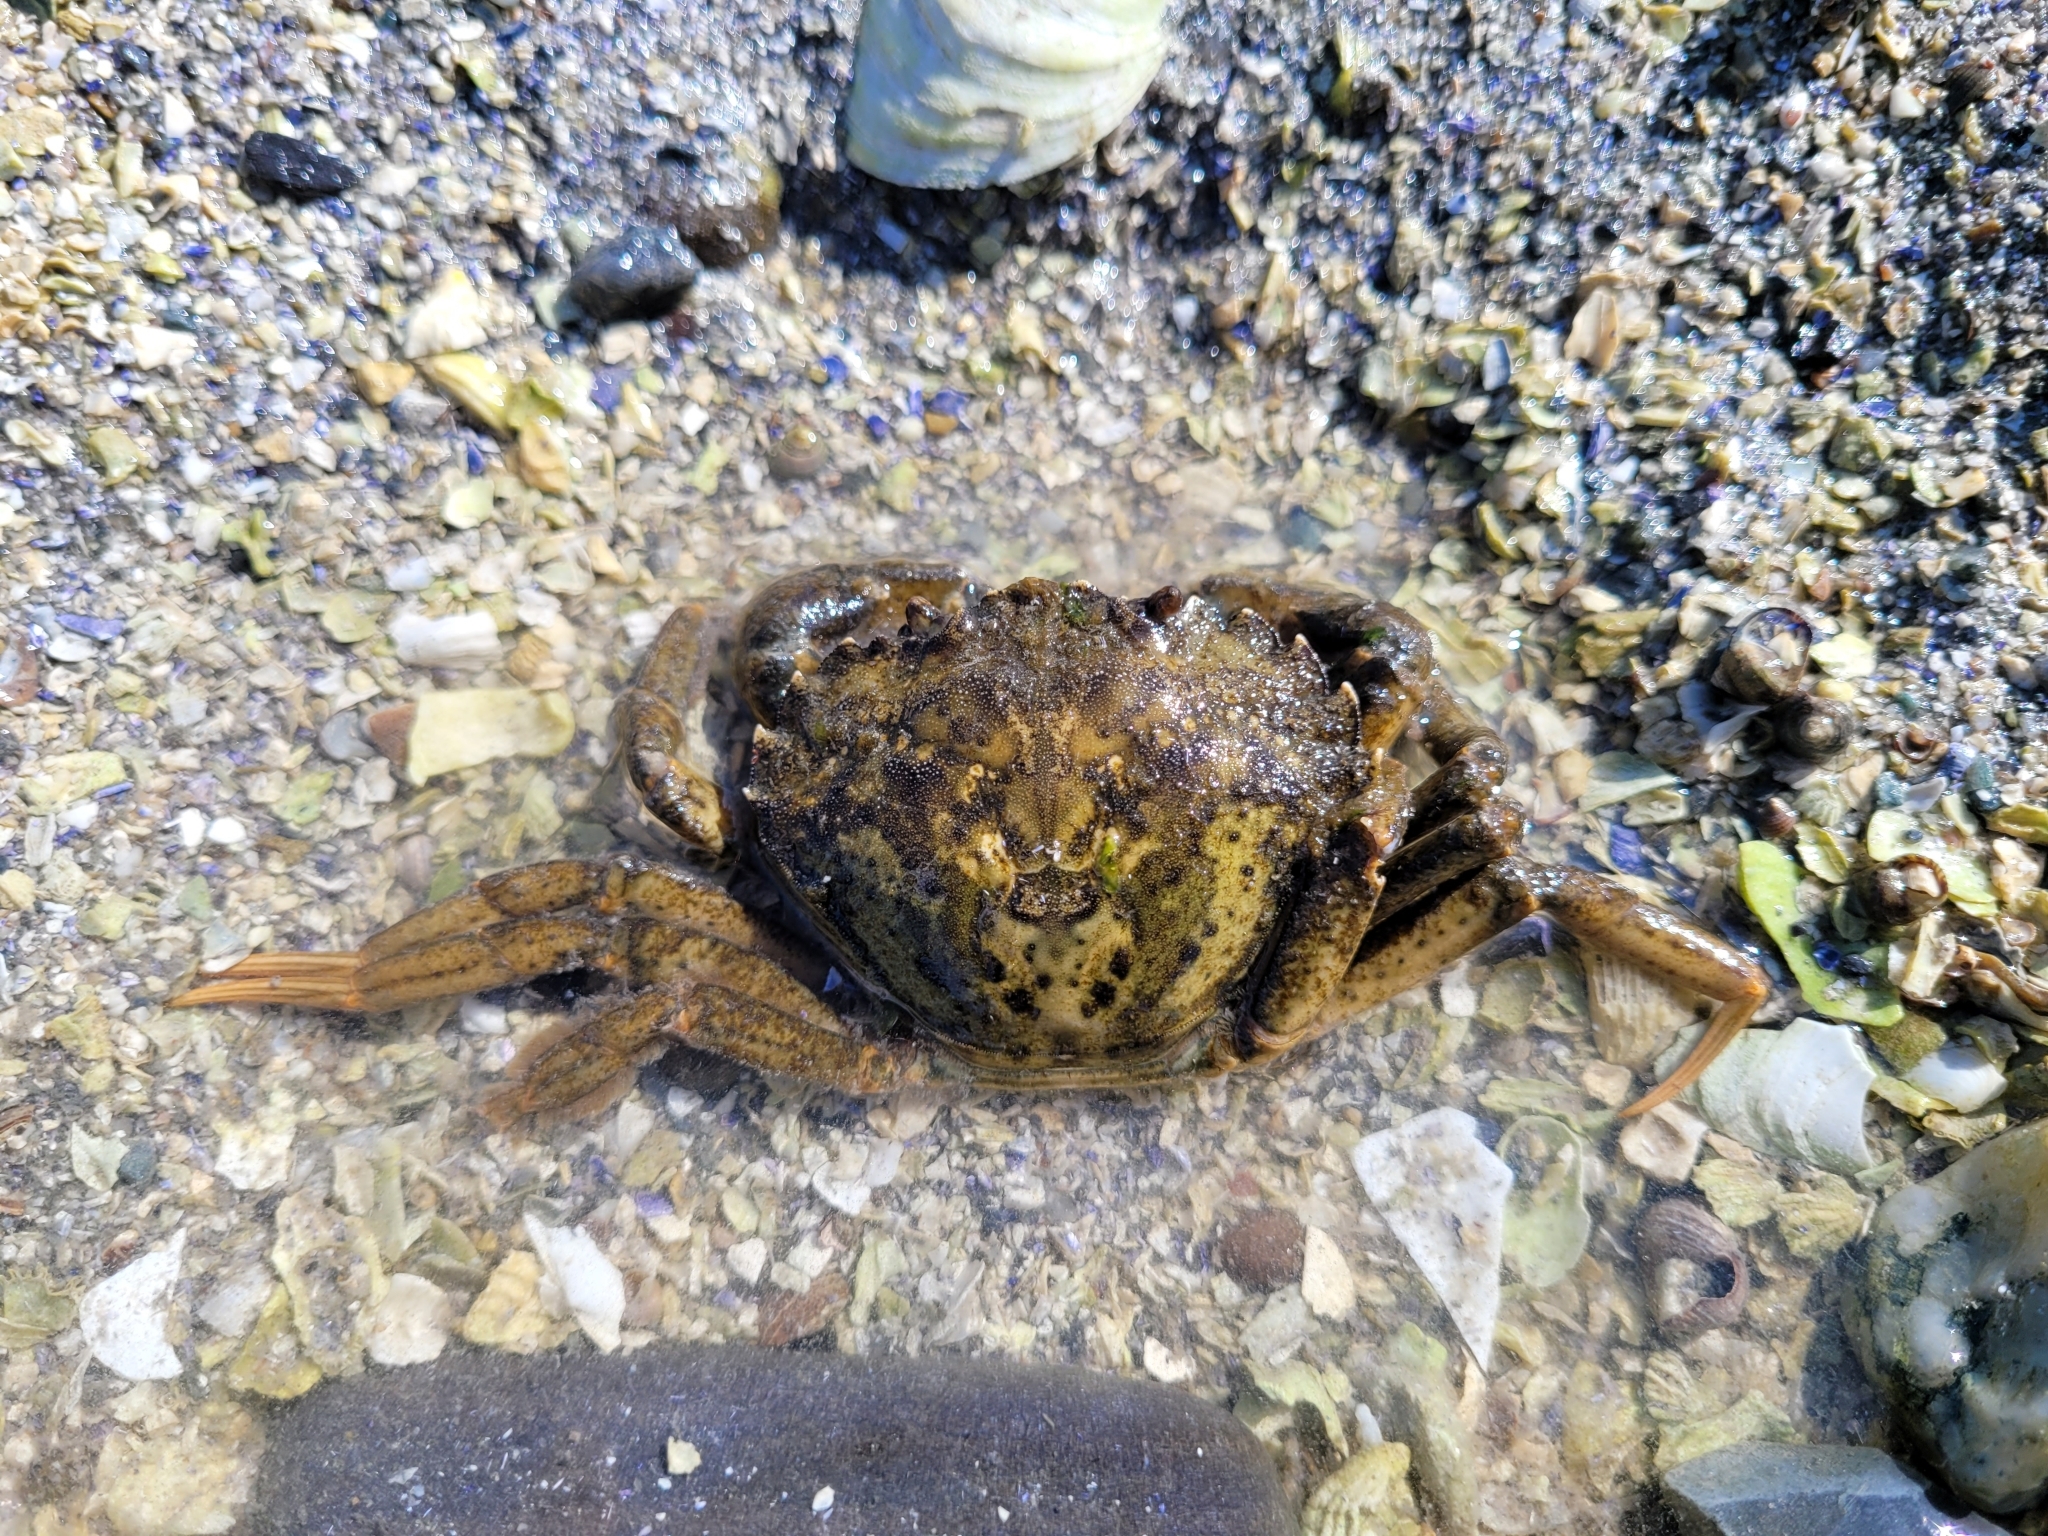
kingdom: Animalia
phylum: Arthropoda
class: Malacostraca
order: Decapoda
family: Carcinidae
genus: Carcinus
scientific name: Carcinus maenas
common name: European green crab
